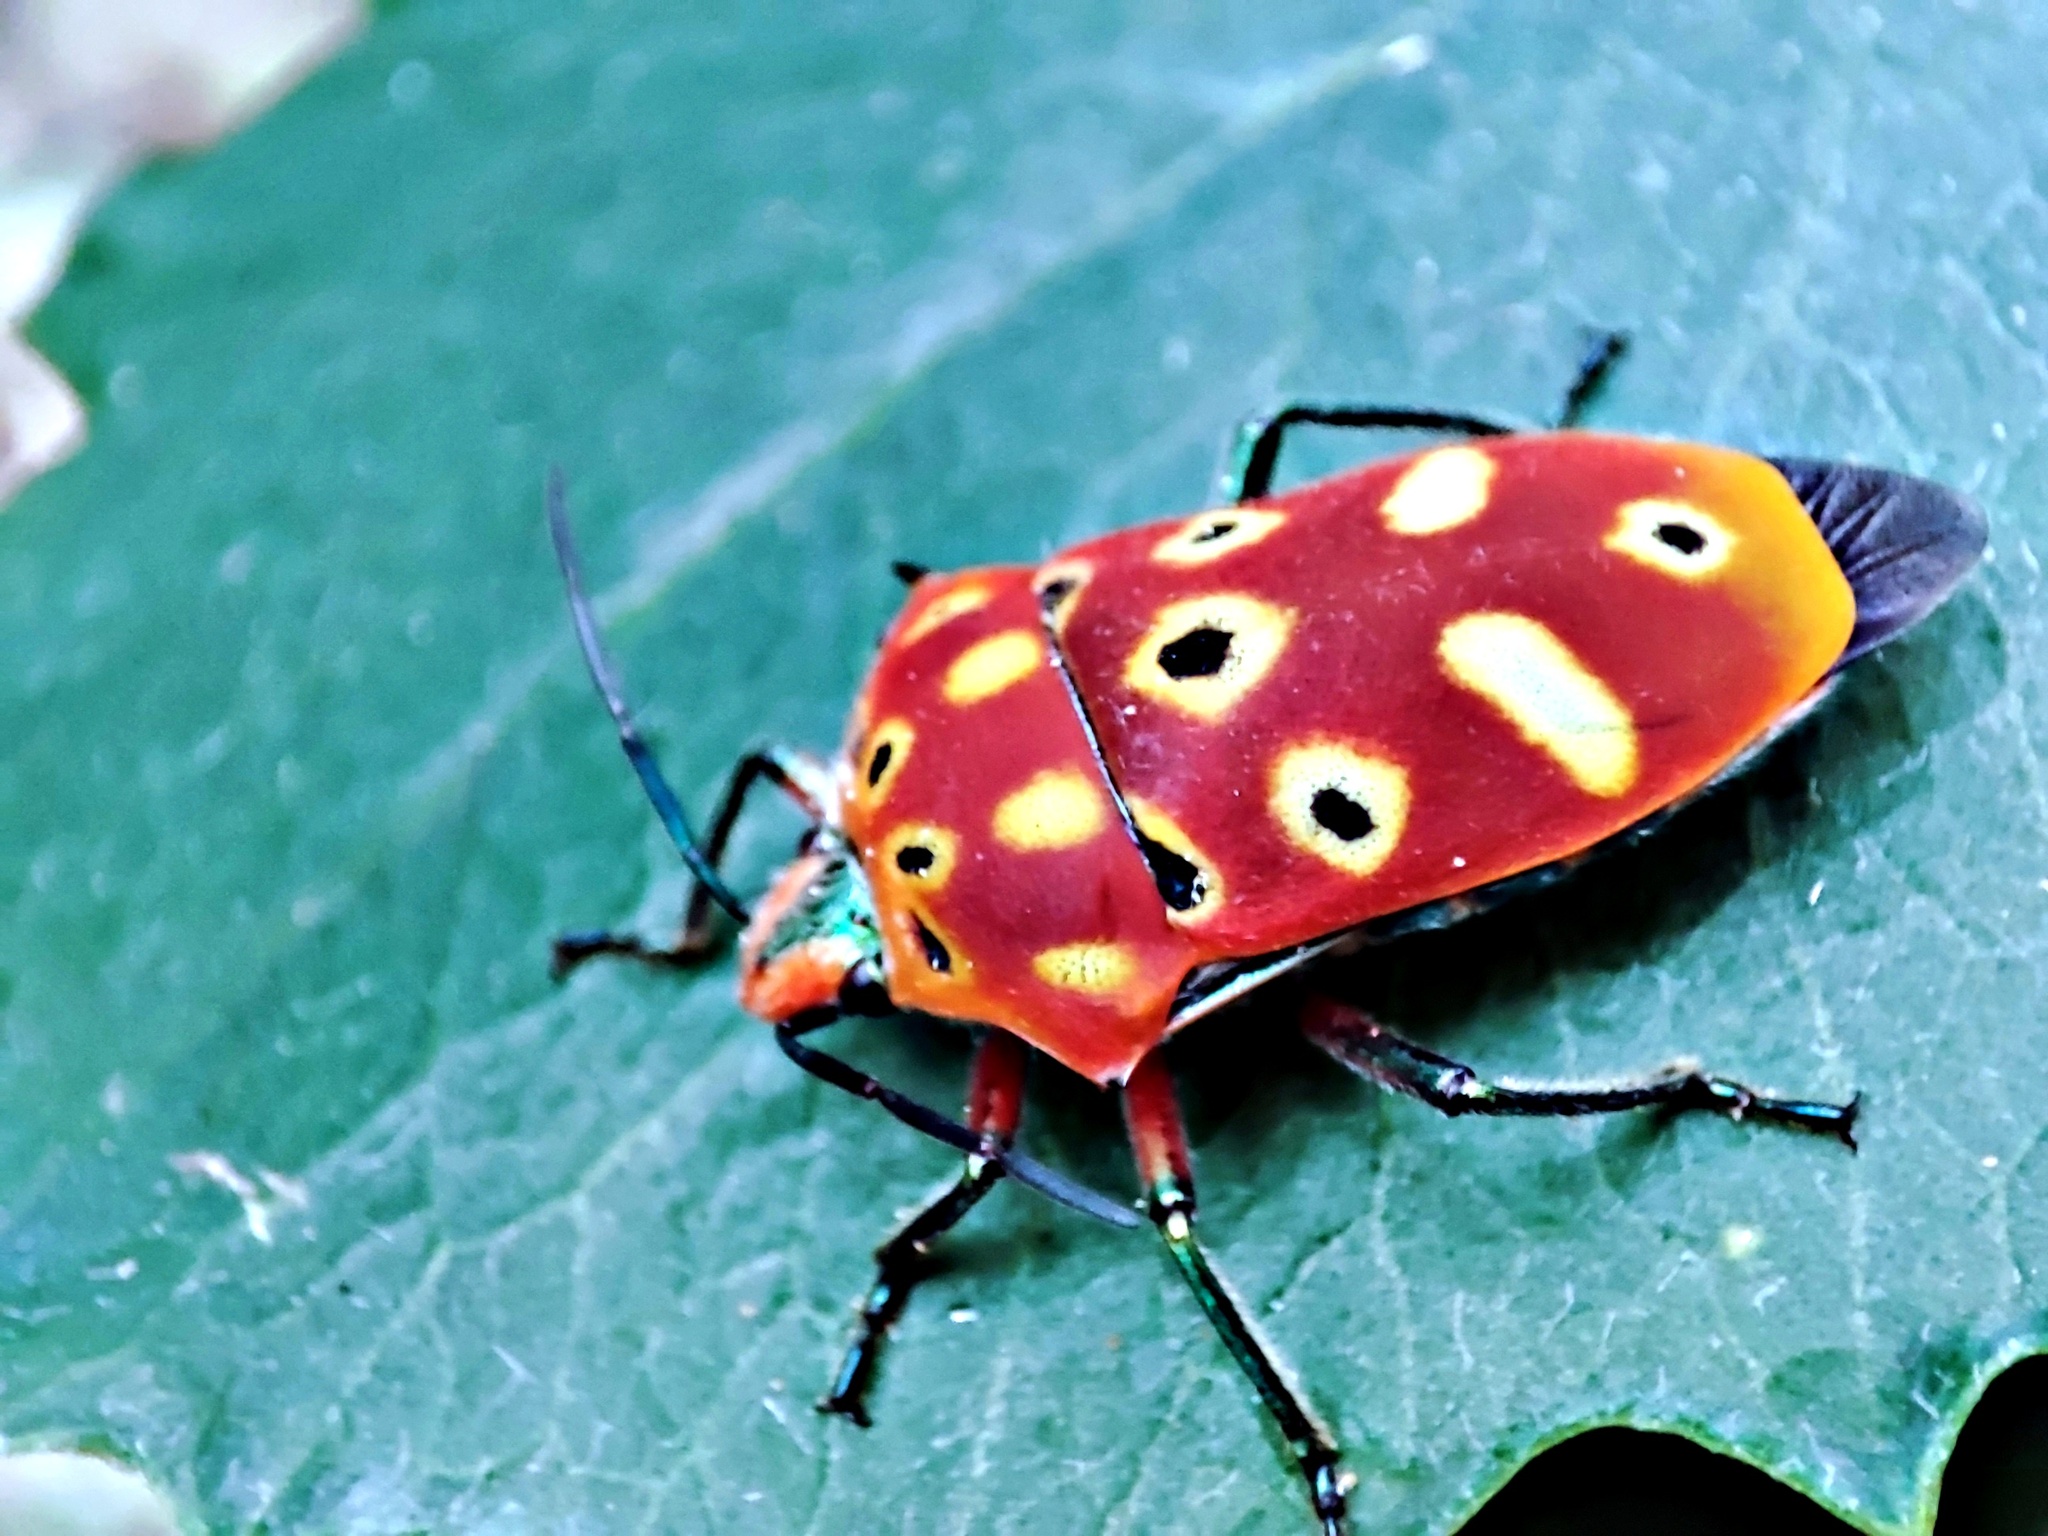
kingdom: Animalia
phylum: Arthropoda
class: Insecta
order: Hemiptera
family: Scutelleridae
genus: Cantao
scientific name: Cantao ocellatus
